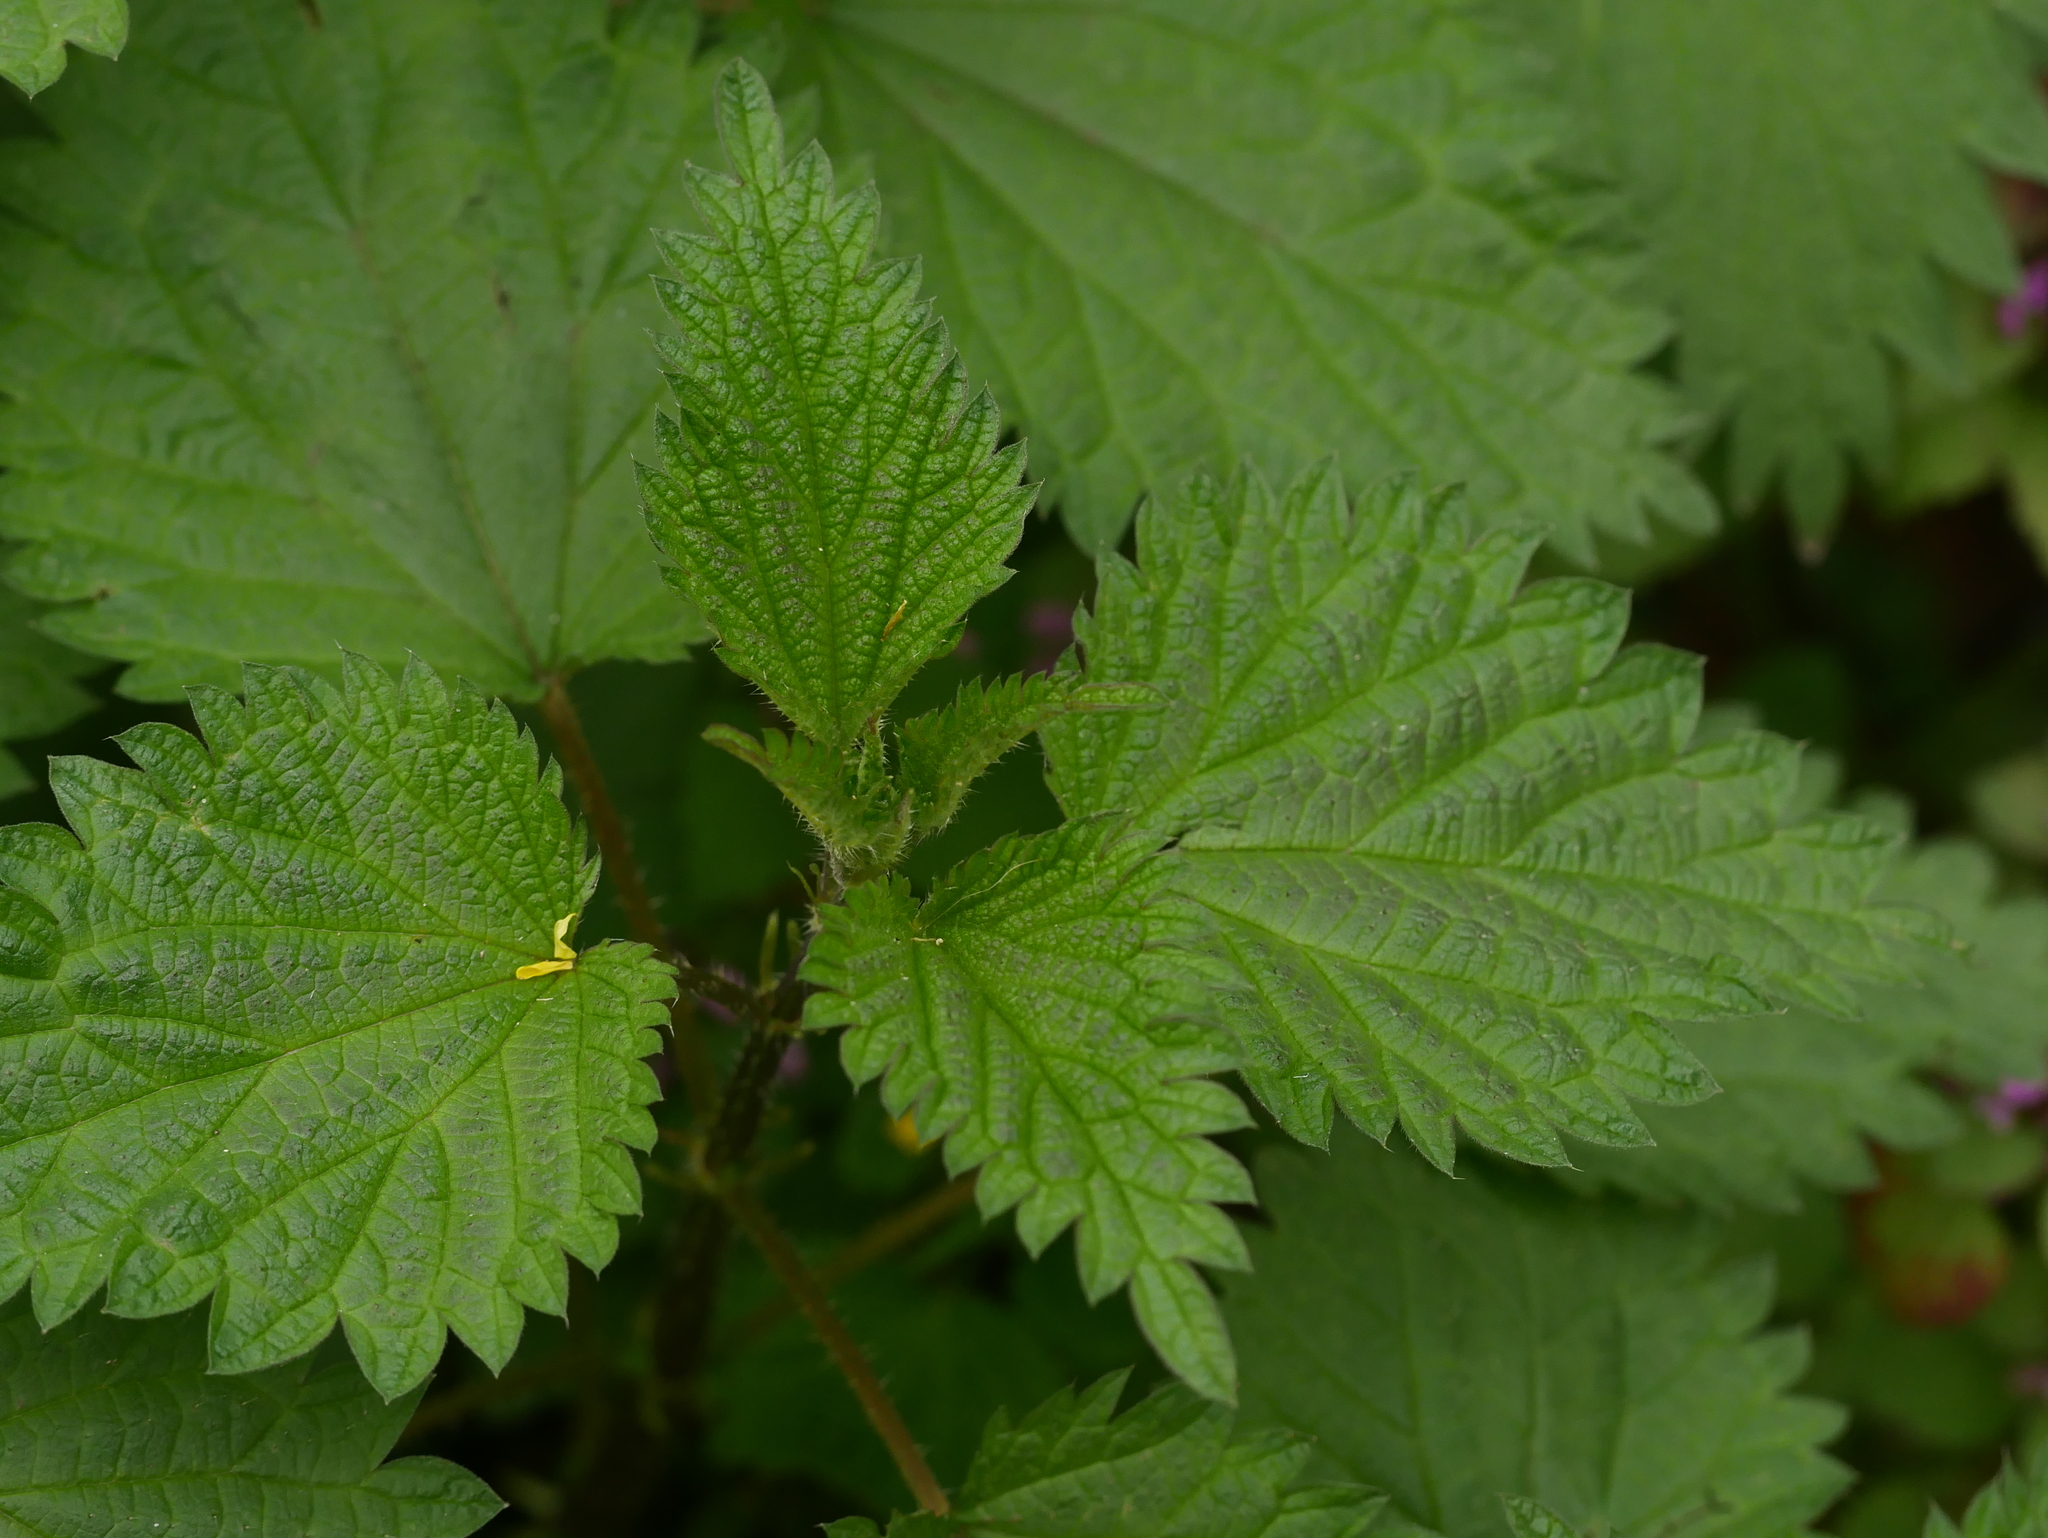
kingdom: Plantae
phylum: Tracheophyta
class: Magnoliopsida
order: Rosales
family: Urticaceae
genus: Urtica
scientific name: Urtica dioica
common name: Common nettle
